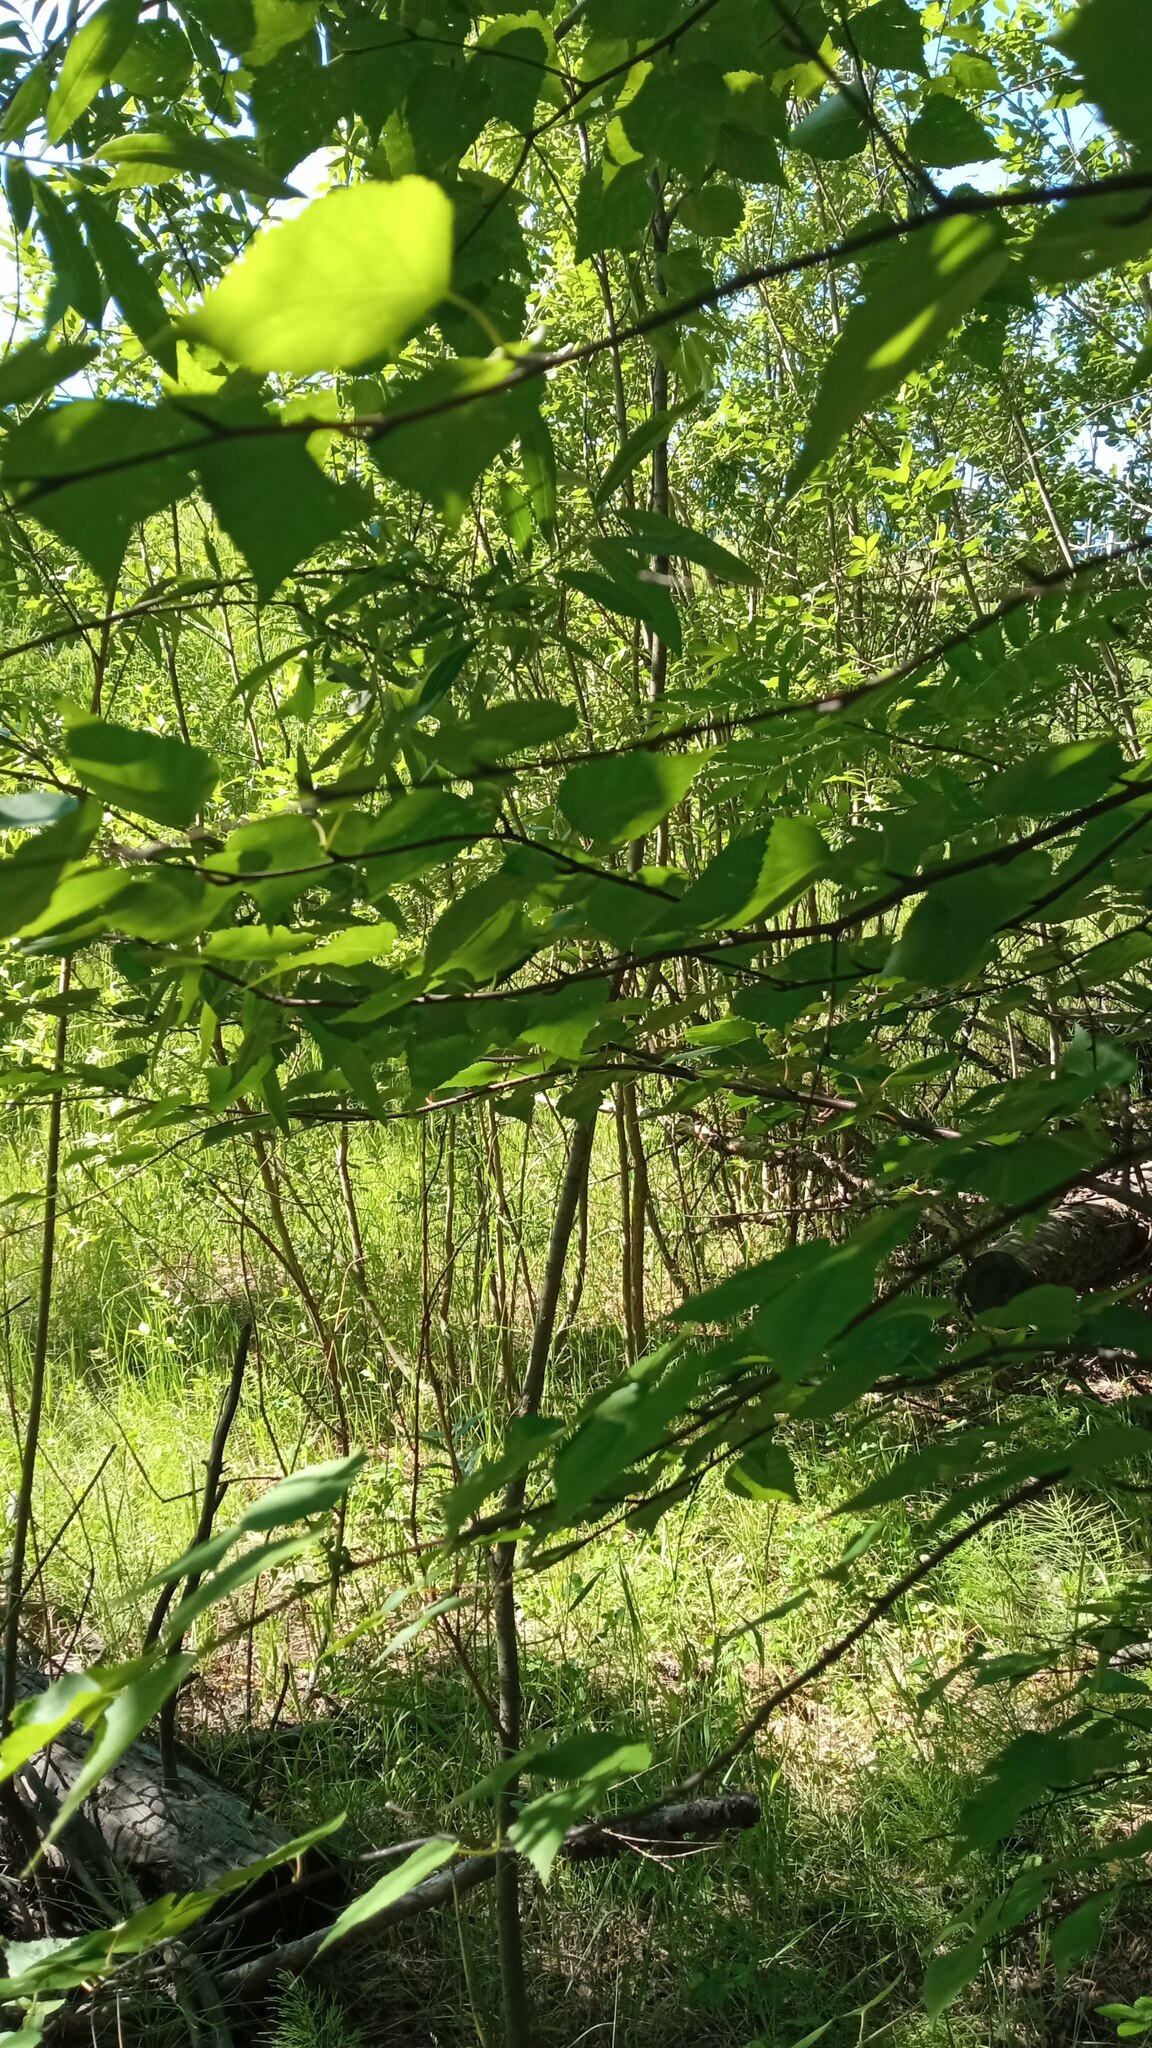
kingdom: Plantae
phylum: Tracheophyta
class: Magnoliopsida
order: Fagales
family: Betulaceae
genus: Betula
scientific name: Betula pubescens
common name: Downy birch
